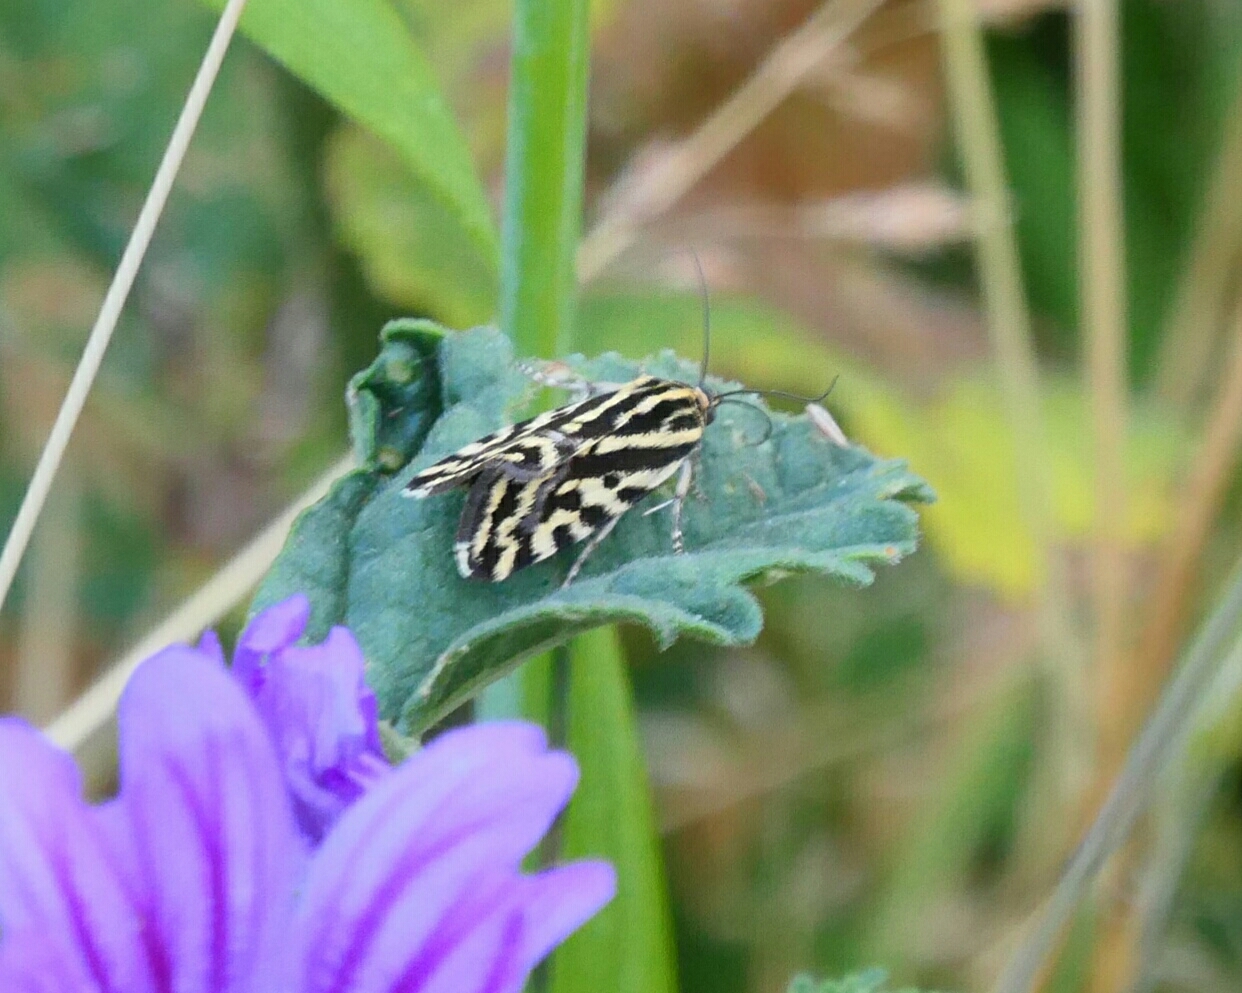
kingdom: Animalia
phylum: Arthropoda
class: Insecta
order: Lepidoptera
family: Noctuidae
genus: Acontia
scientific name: Acontia trabealis
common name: Spotted sulphur
